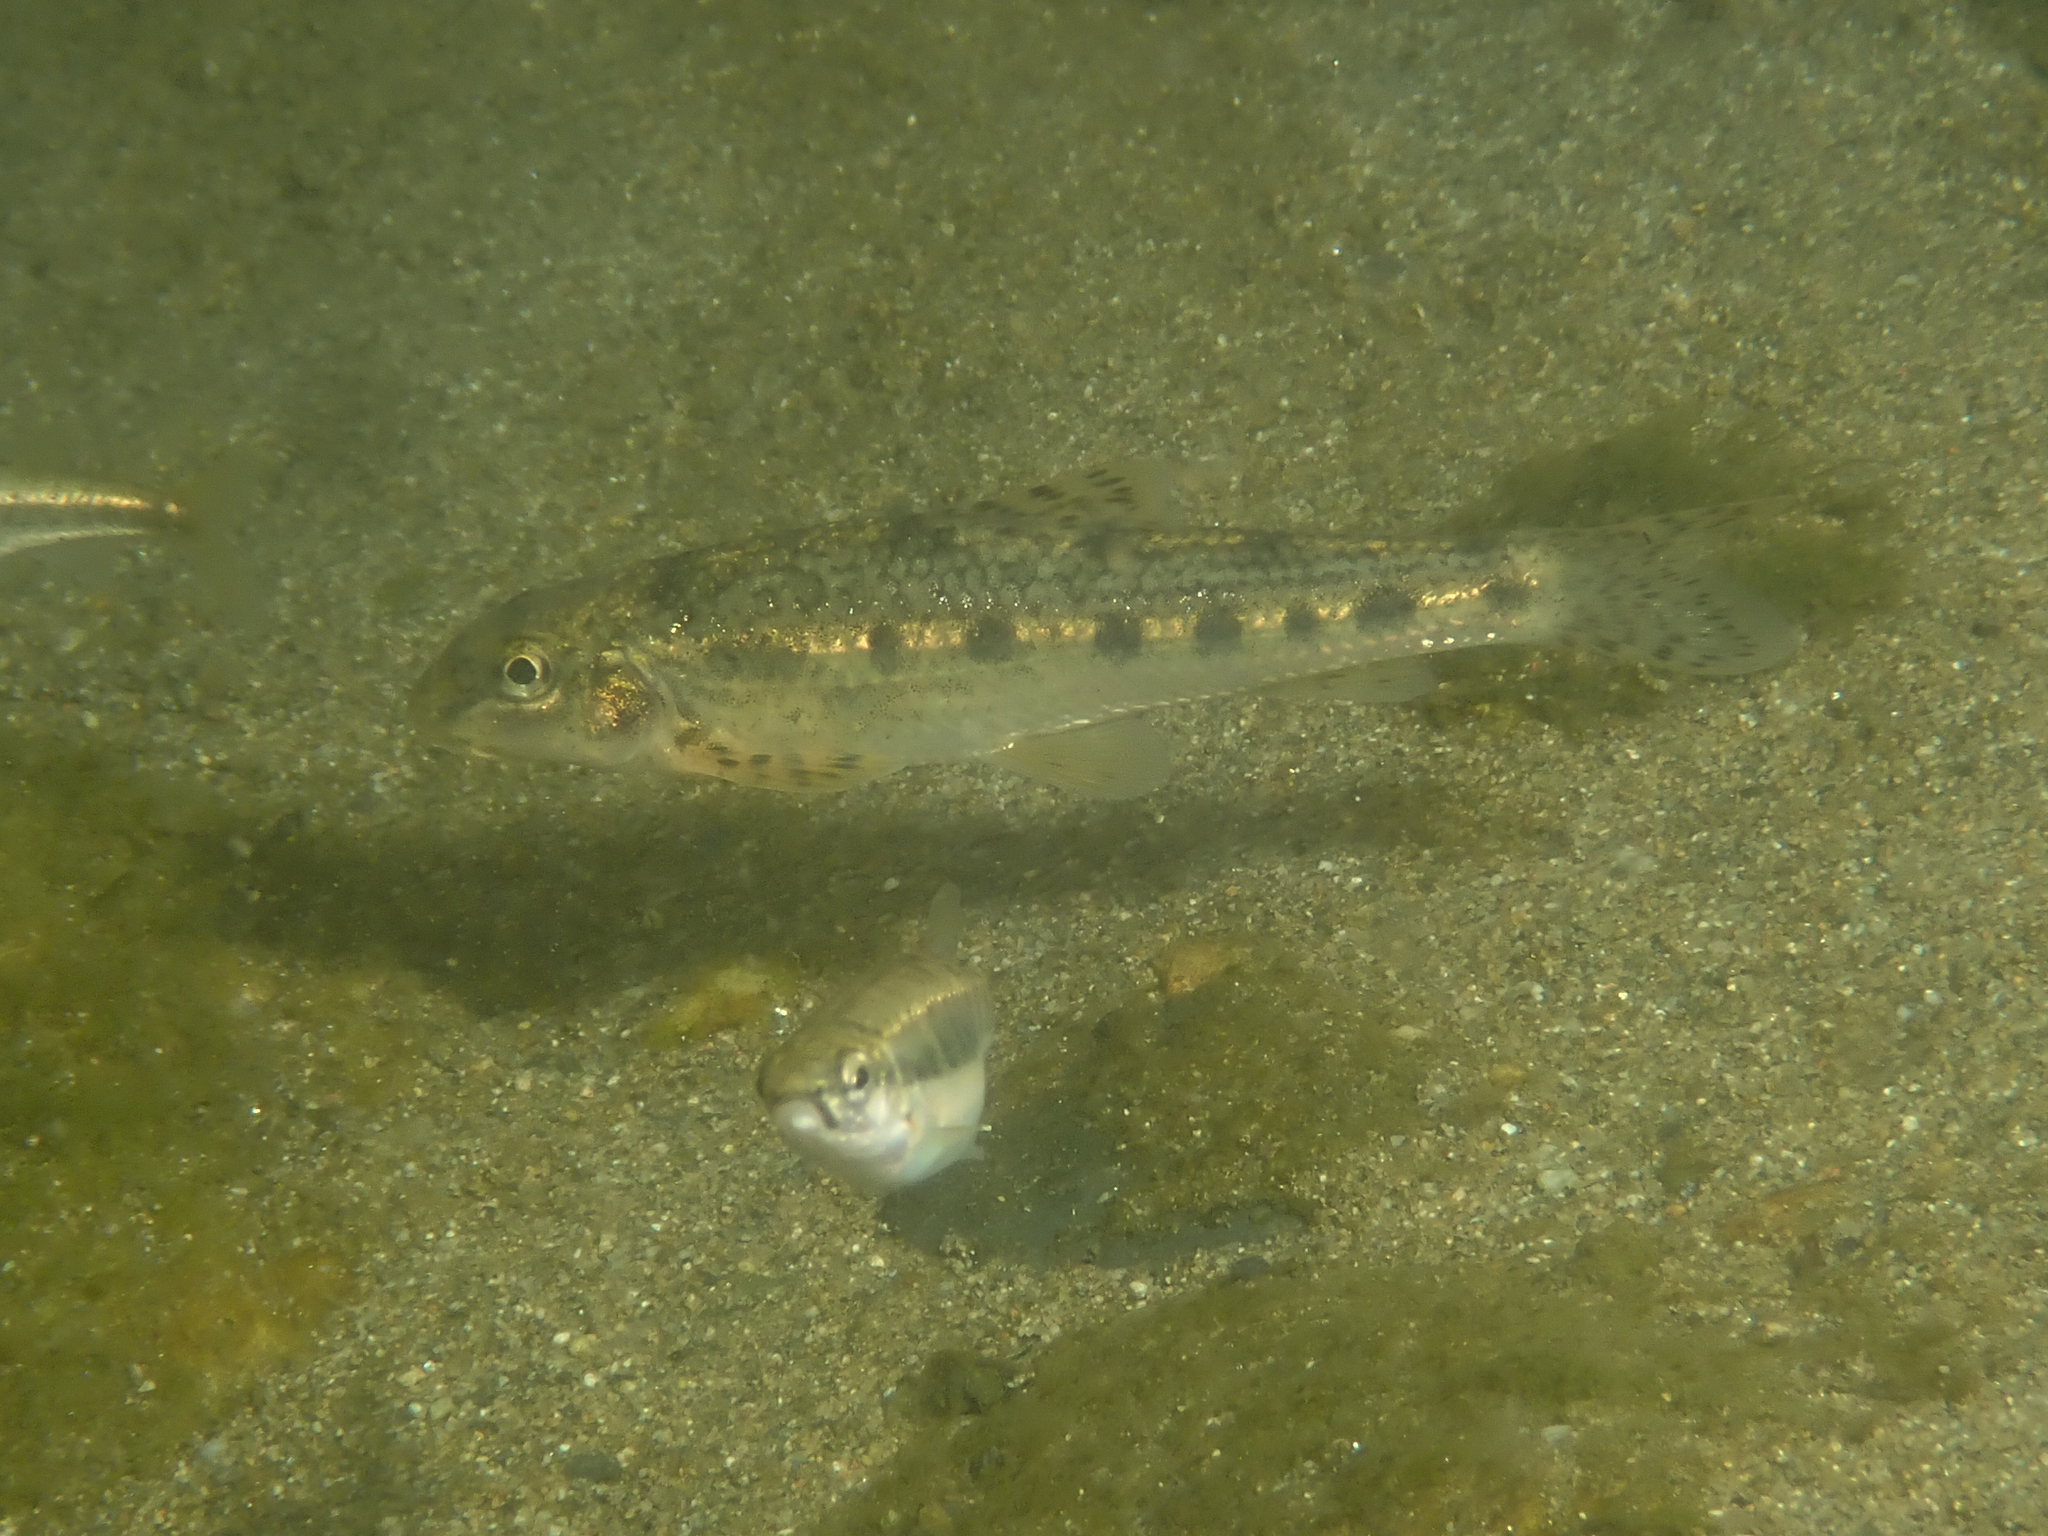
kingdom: Animalia
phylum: Chordata
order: Cypriniformes
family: Cyprinidae
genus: Gobio
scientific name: Gobio occitaniae
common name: Languedoc gudgeon
